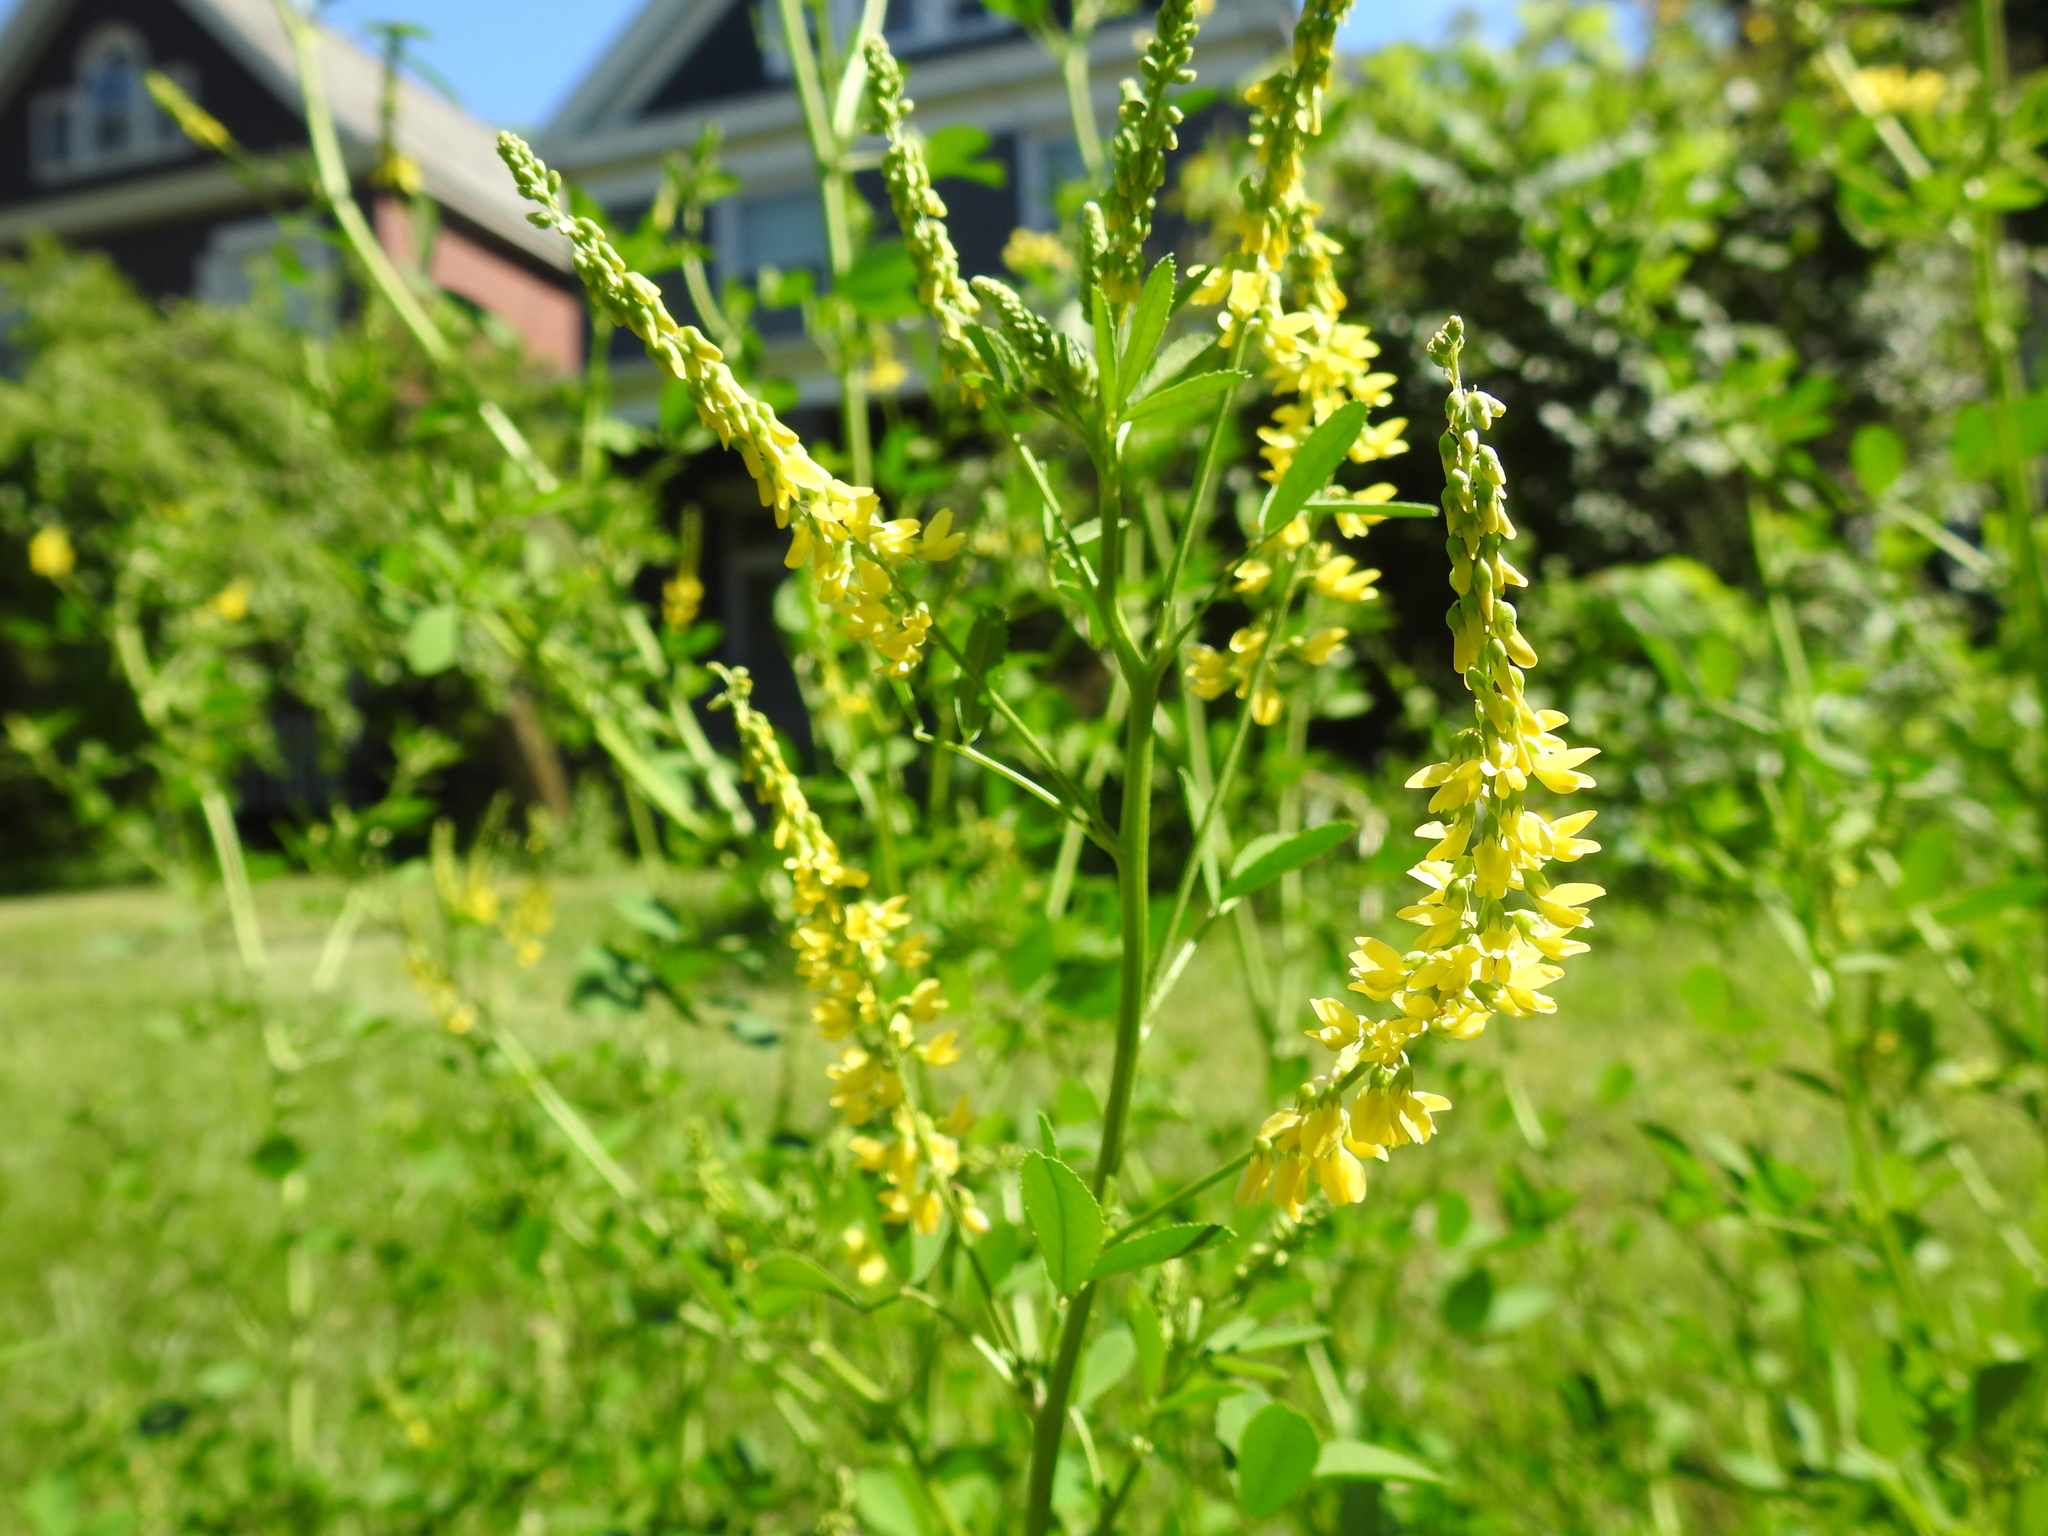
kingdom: Plantae
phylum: Tracheophyta
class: Magnoliopsida
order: Fabales
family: Fabaceae
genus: Melilotus
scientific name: Melilotus officinalis
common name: Sweetclover
